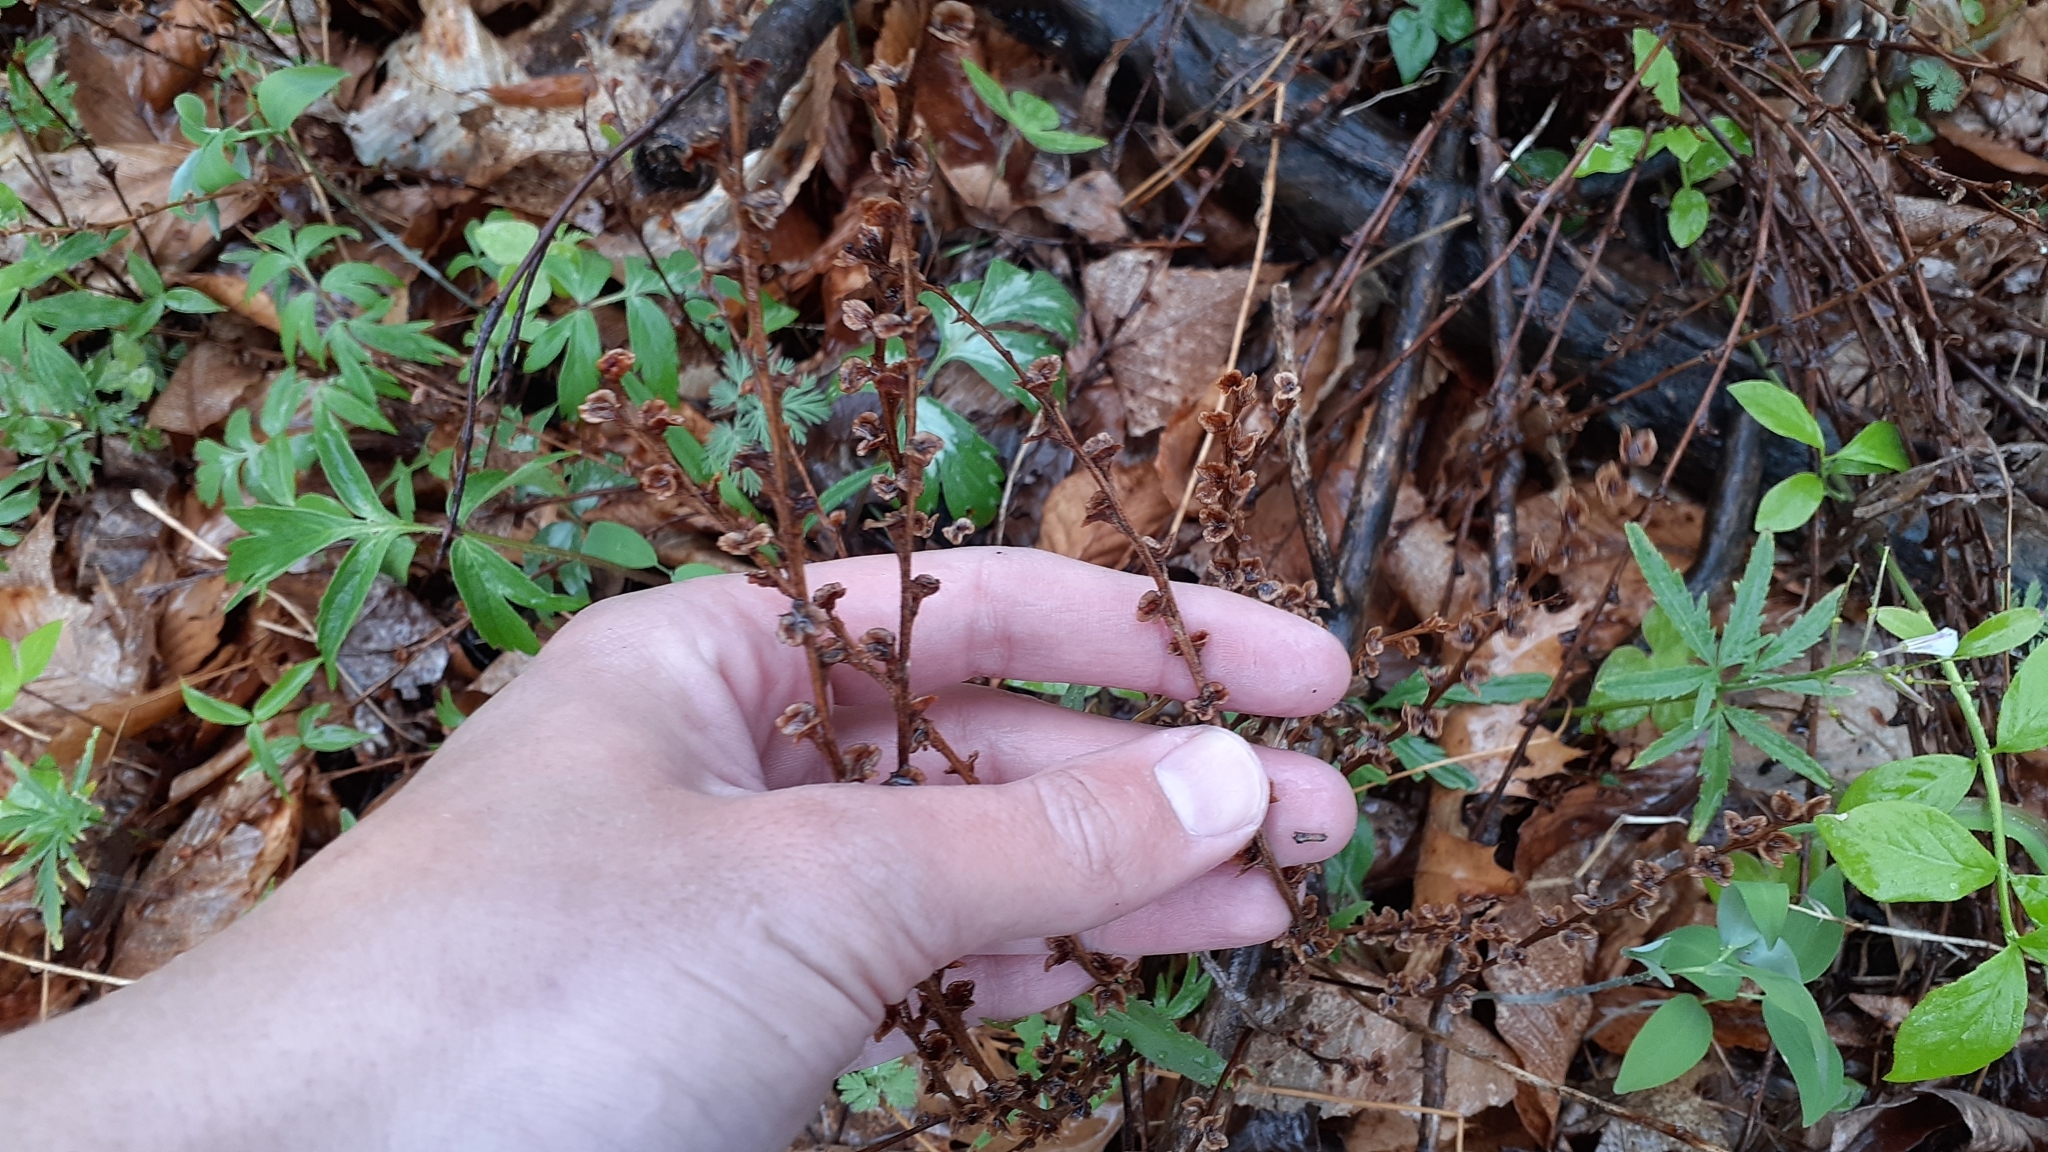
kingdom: Plantae
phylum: Tracheophyta
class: Magnoliopsida
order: Lamiales
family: Orobanchaceae
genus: Epifagus
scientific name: Epifagus virginiana
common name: Beechdrops
